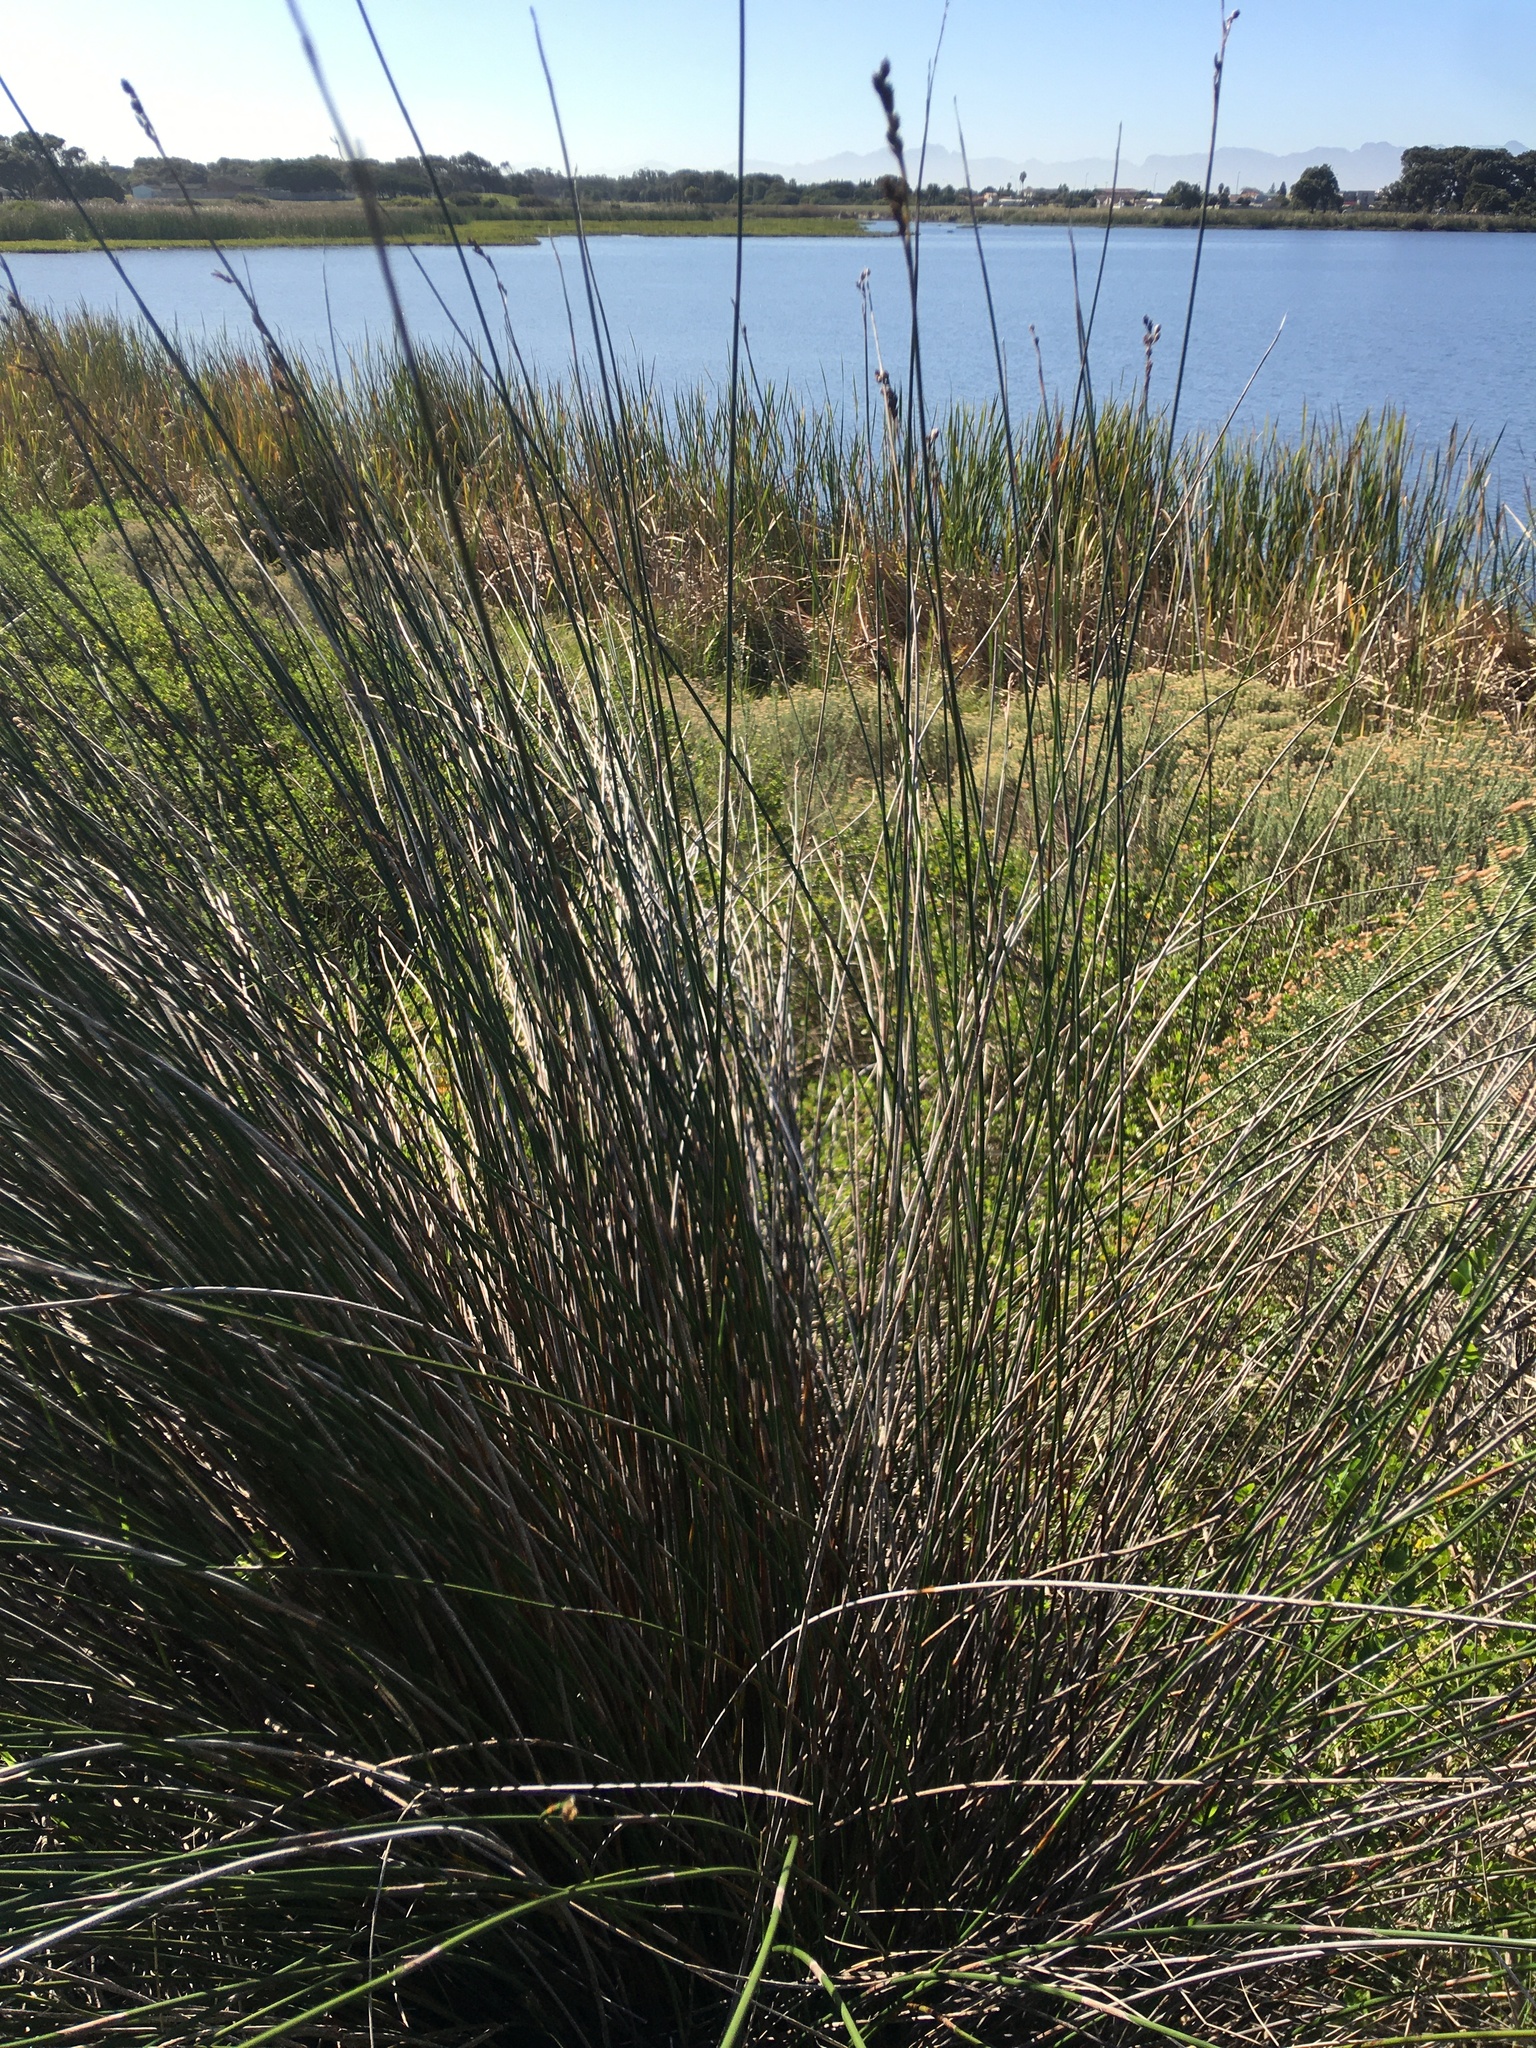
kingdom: Plantae
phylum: Tracheophyta
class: Liliopsida
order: Poales
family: Restionaceae
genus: Thamnochortus
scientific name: Thamnochortus erectus
